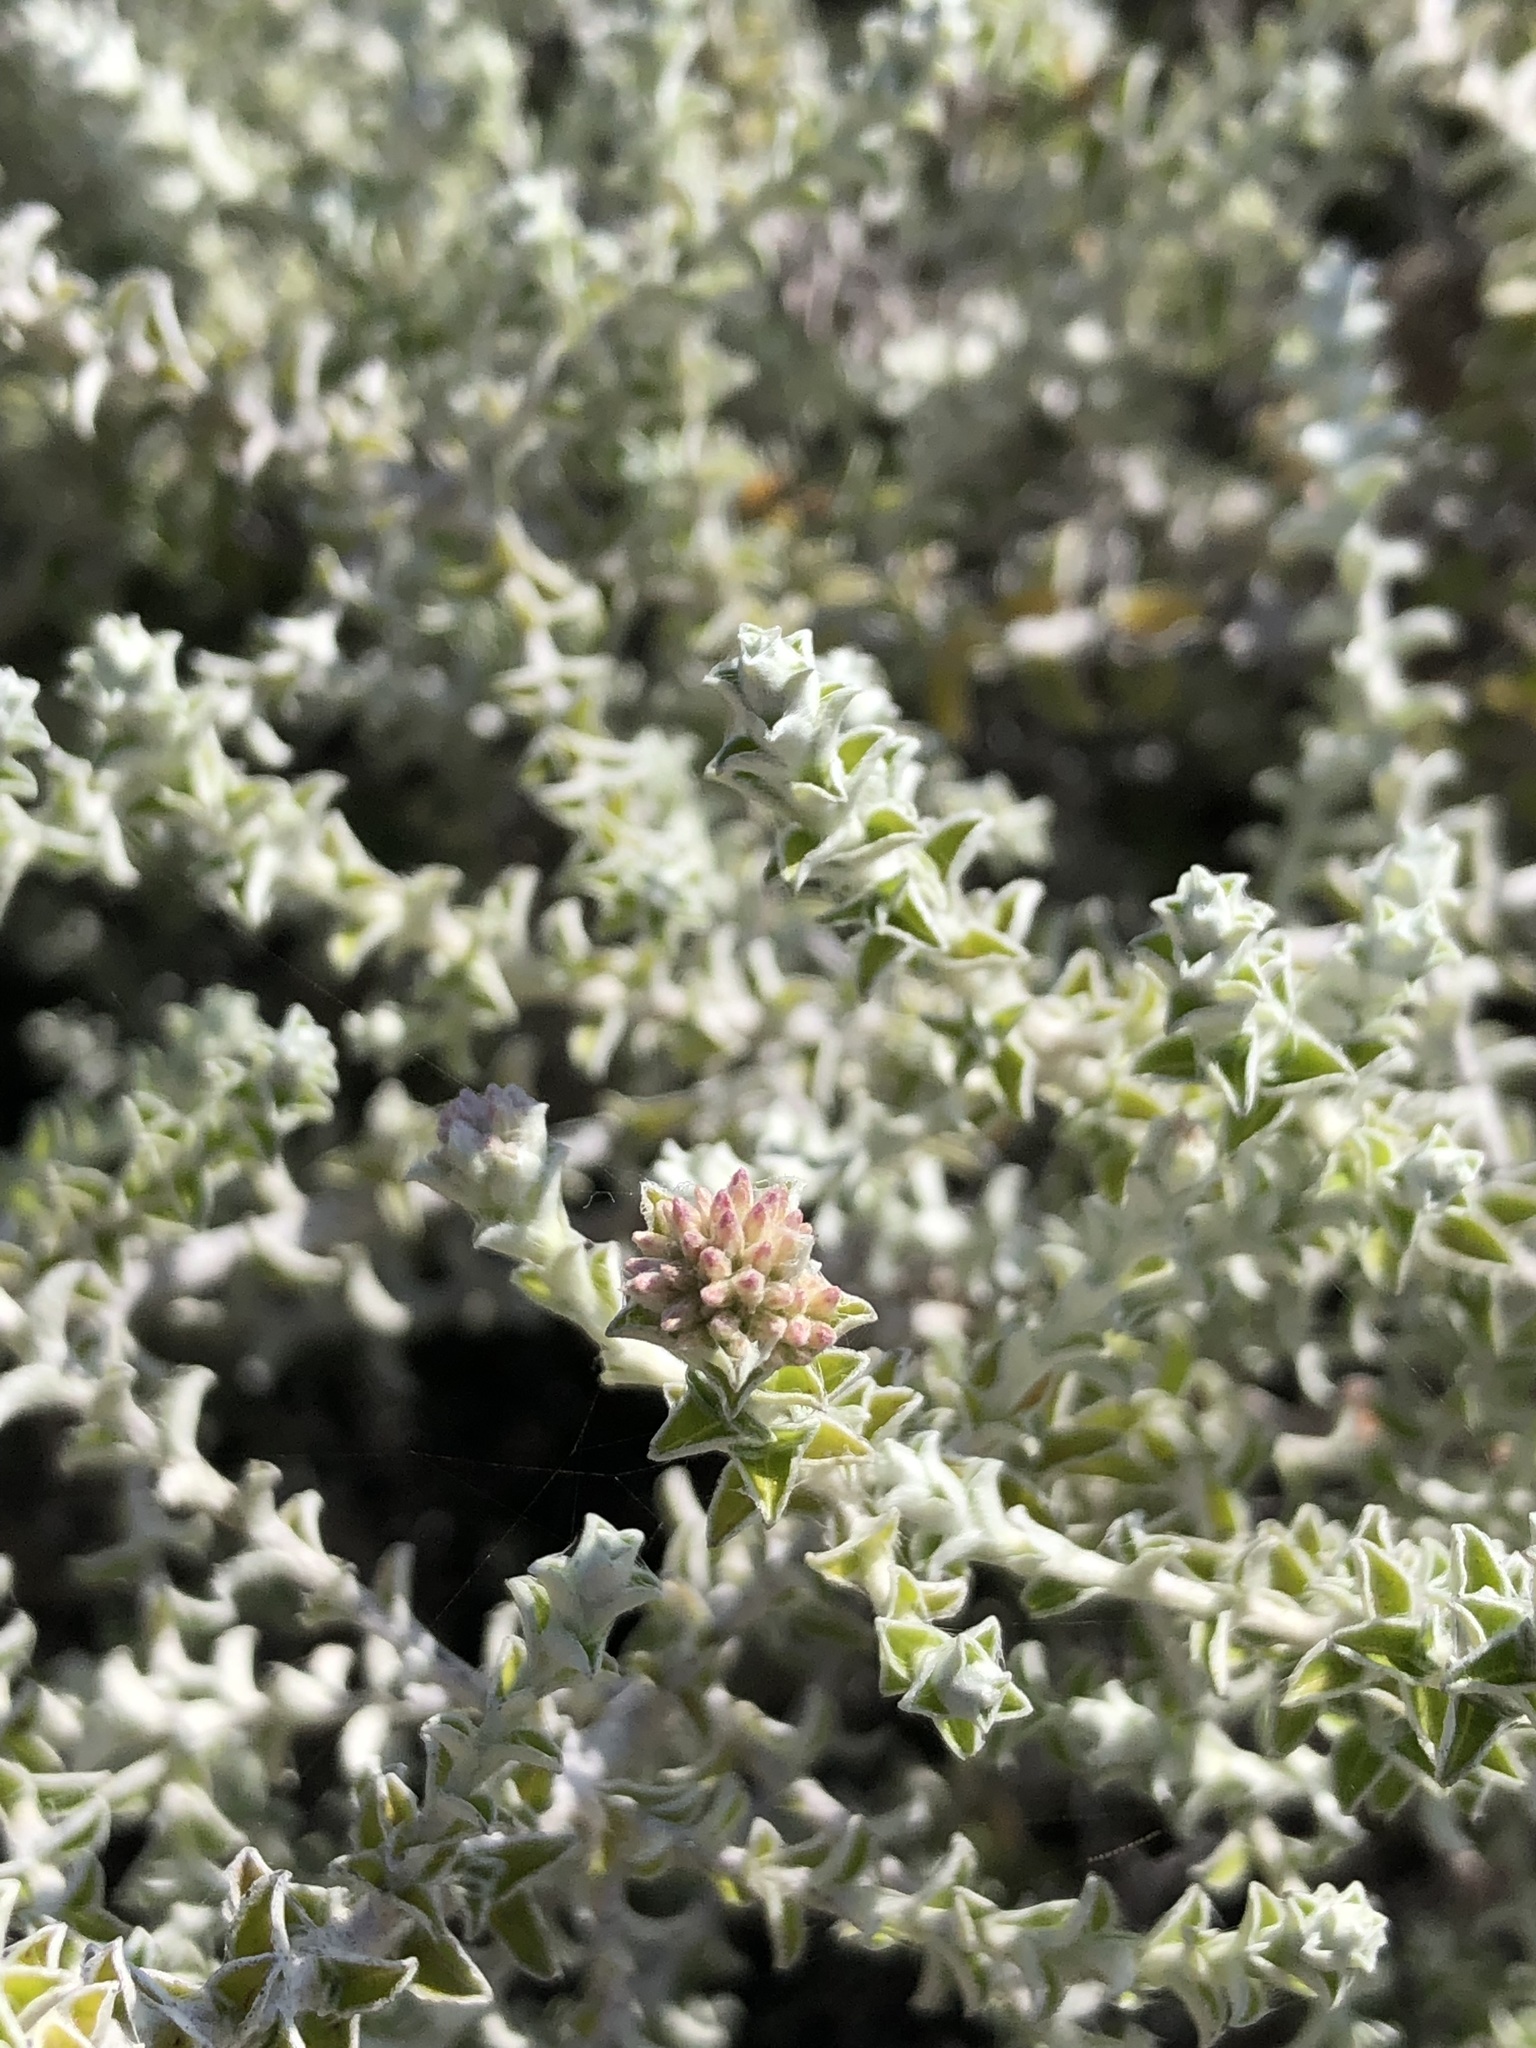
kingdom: Plantae
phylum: Tracheophyta
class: Magnoliopsida
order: Asterales
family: Asteraceae
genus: Plecostachys
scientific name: Plecostachys serpyllifolia
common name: Petite licorice
